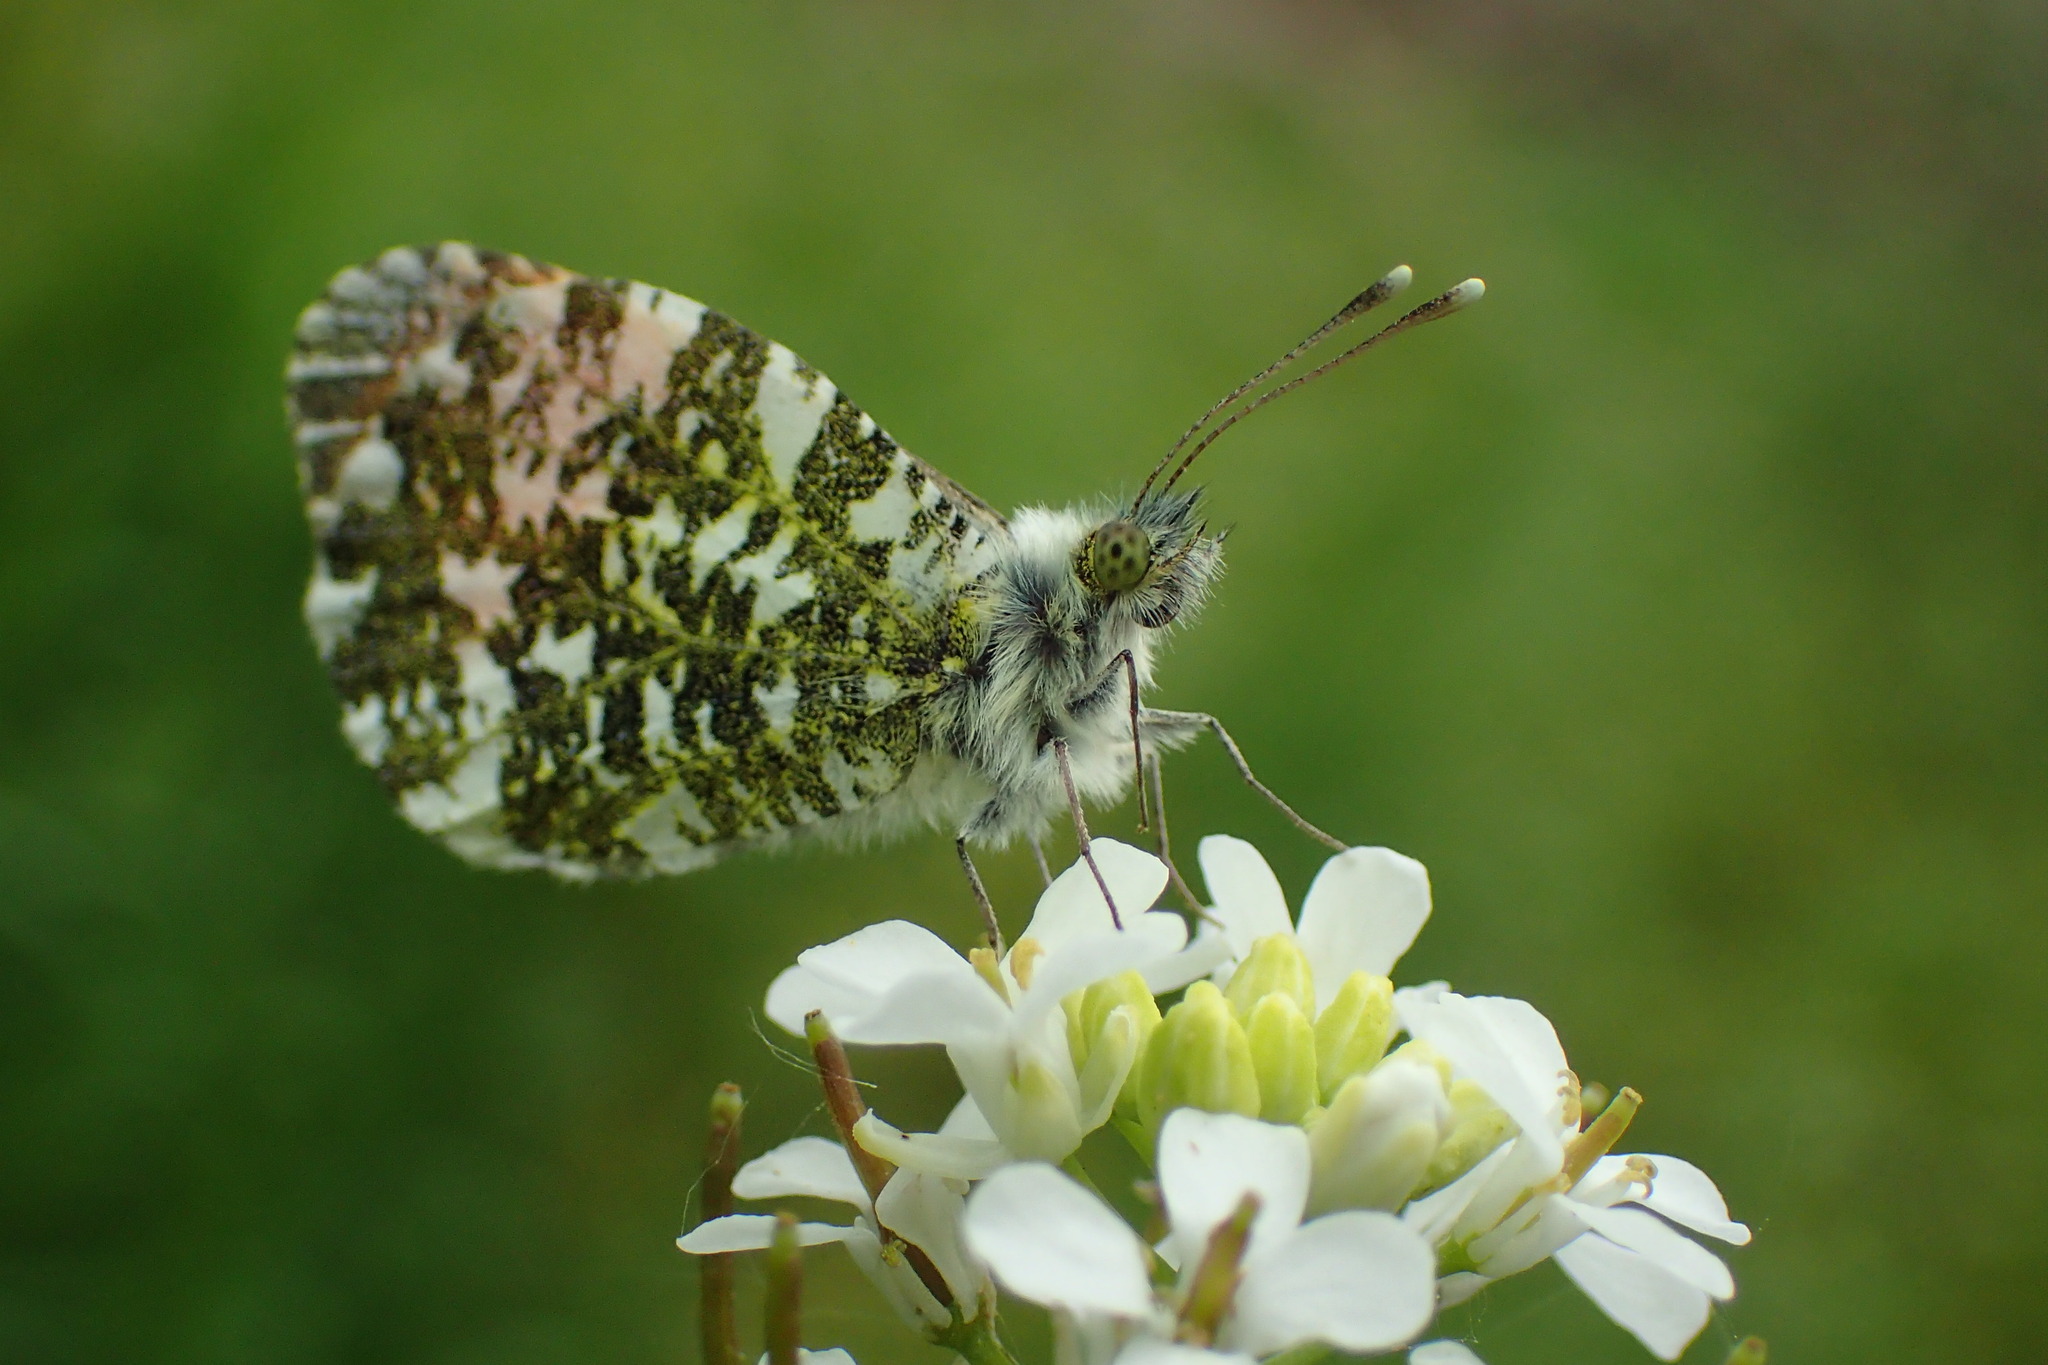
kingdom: Animalia
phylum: Arthropoda
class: Insecta
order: Lepidoptera
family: Pieridae
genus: Anthocharis
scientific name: Anthocharis cardamines
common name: Orange-tip
